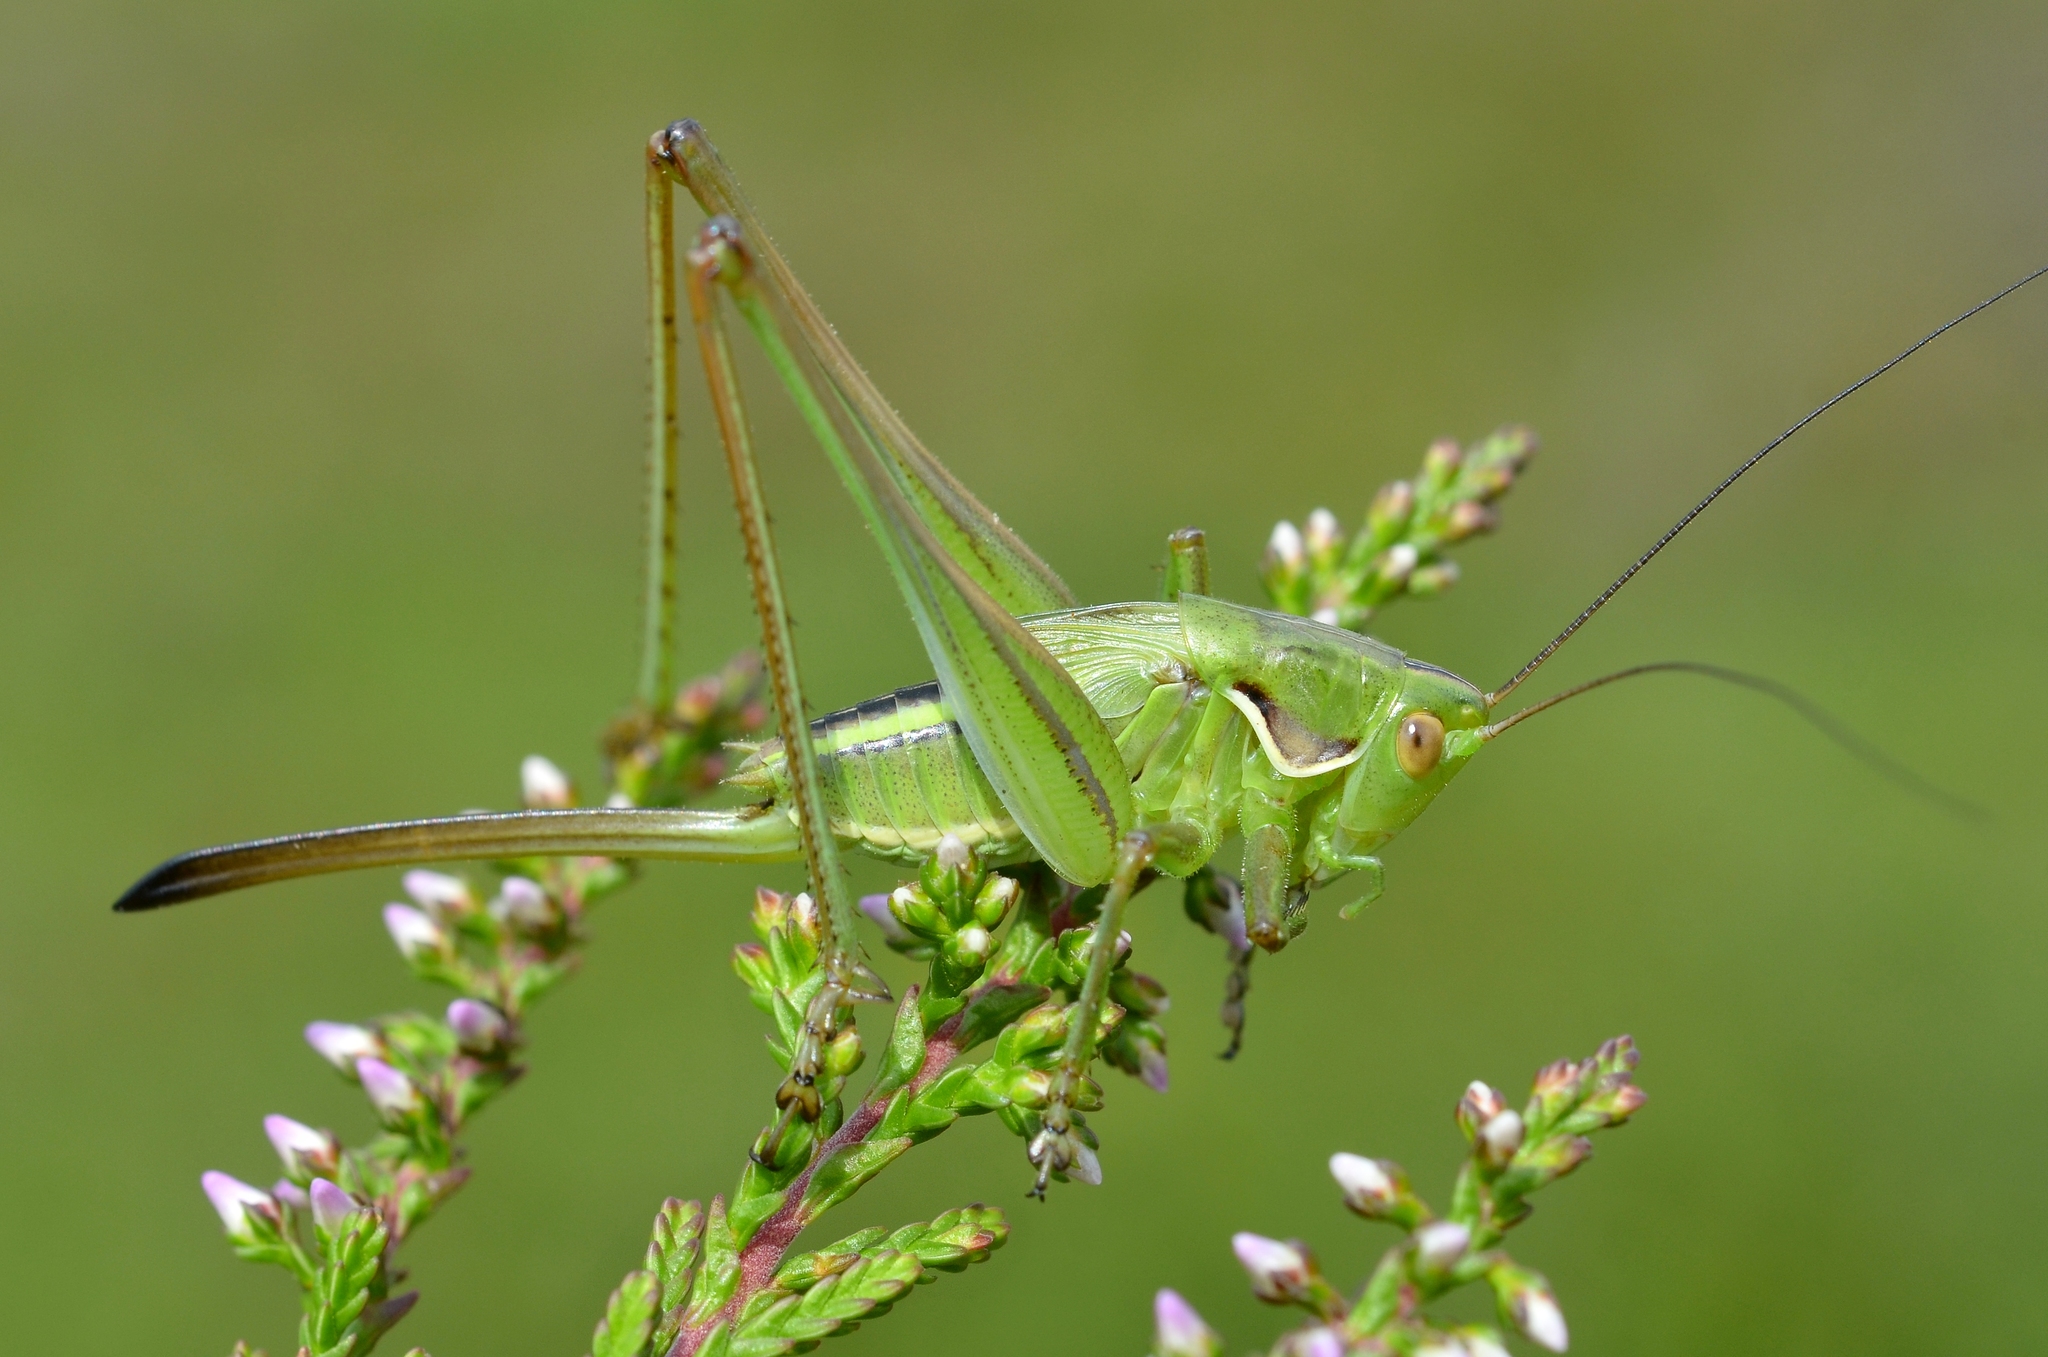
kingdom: Animalia
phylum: Arthropoda
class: Insecta
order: Orthoptera
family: Tettigoniidae
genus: Gampsocleis
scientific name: Gampsocleis glabra
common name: Heath bushcricket
